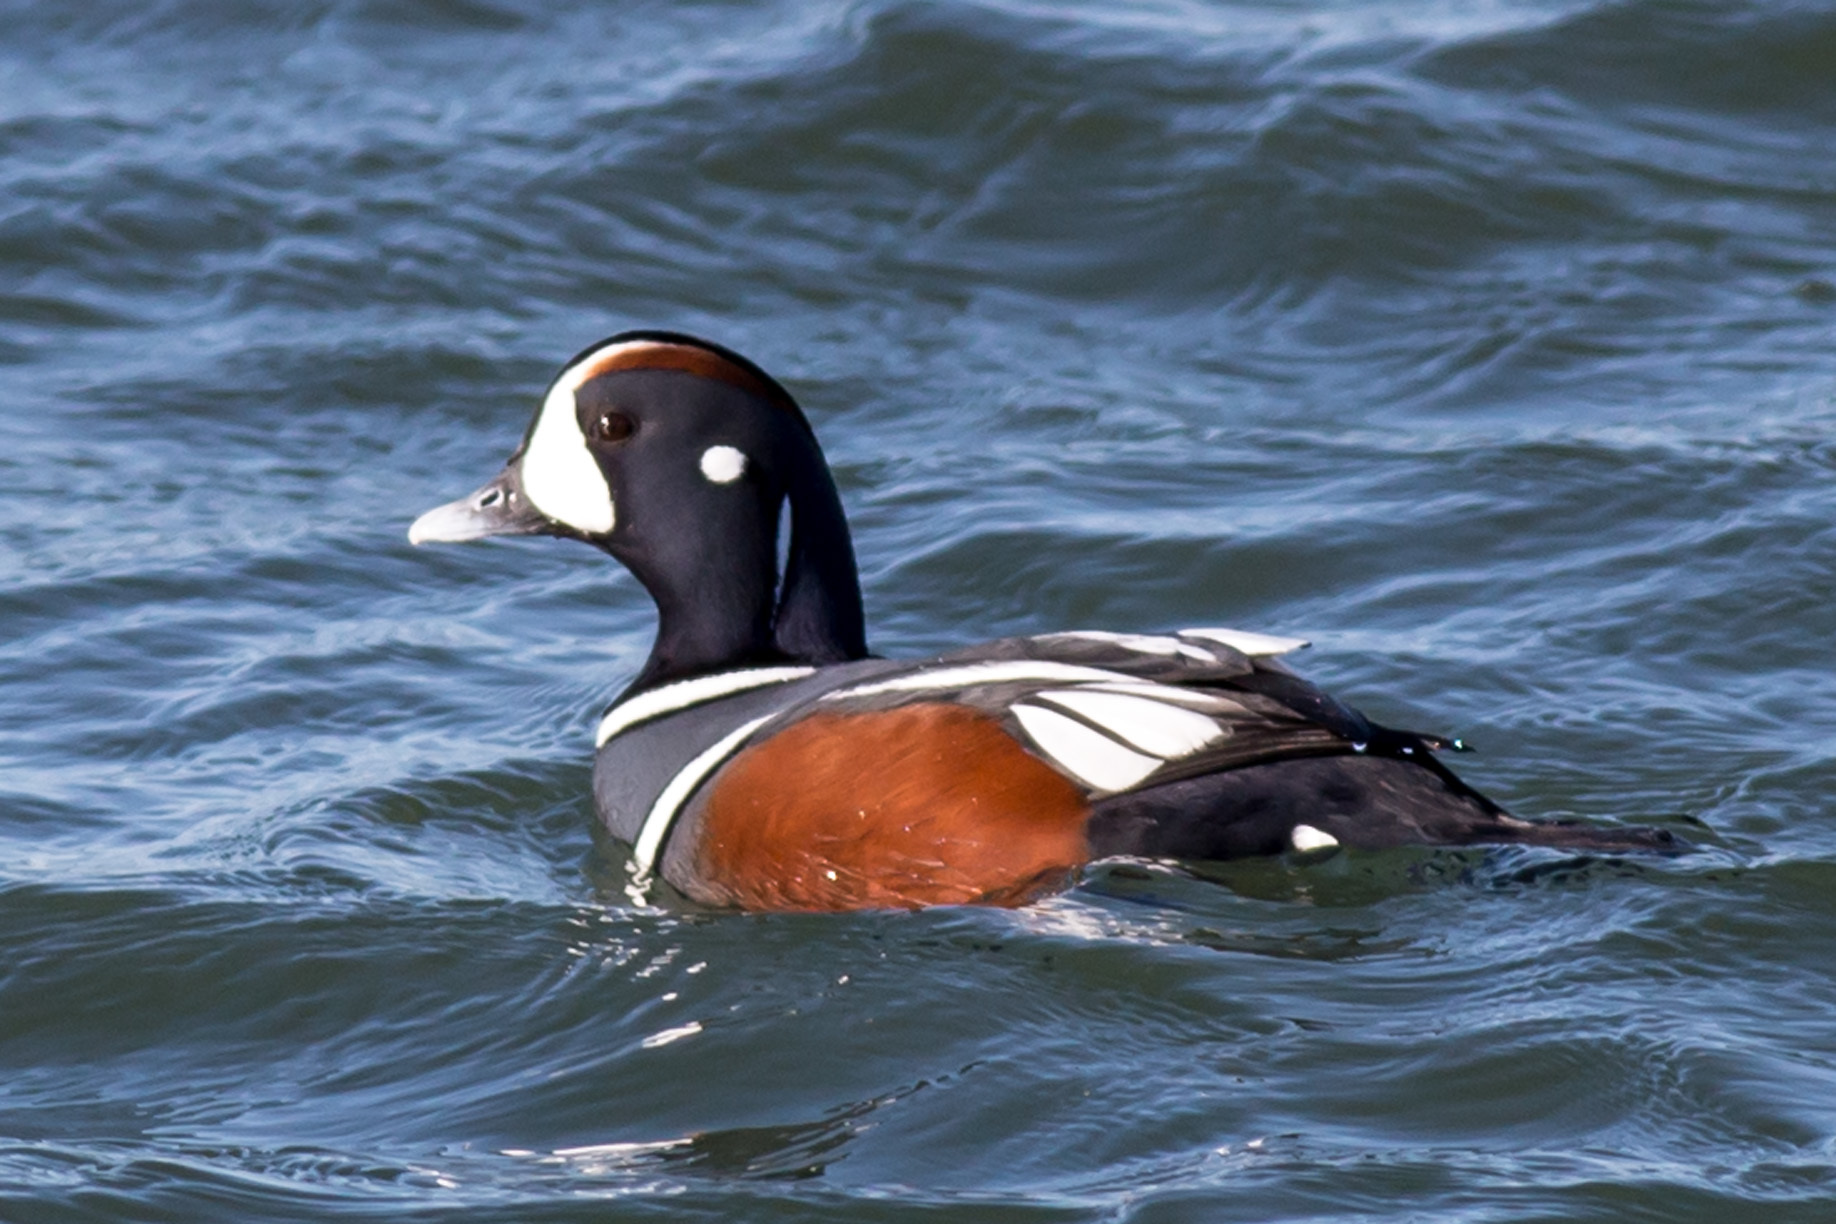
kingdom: Animalia
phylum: Chordata
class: Aves
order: Anseriformes
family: Anatidae
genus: Histrionicus
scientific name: Histrionicus histrionicus
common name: Harlequin duck
